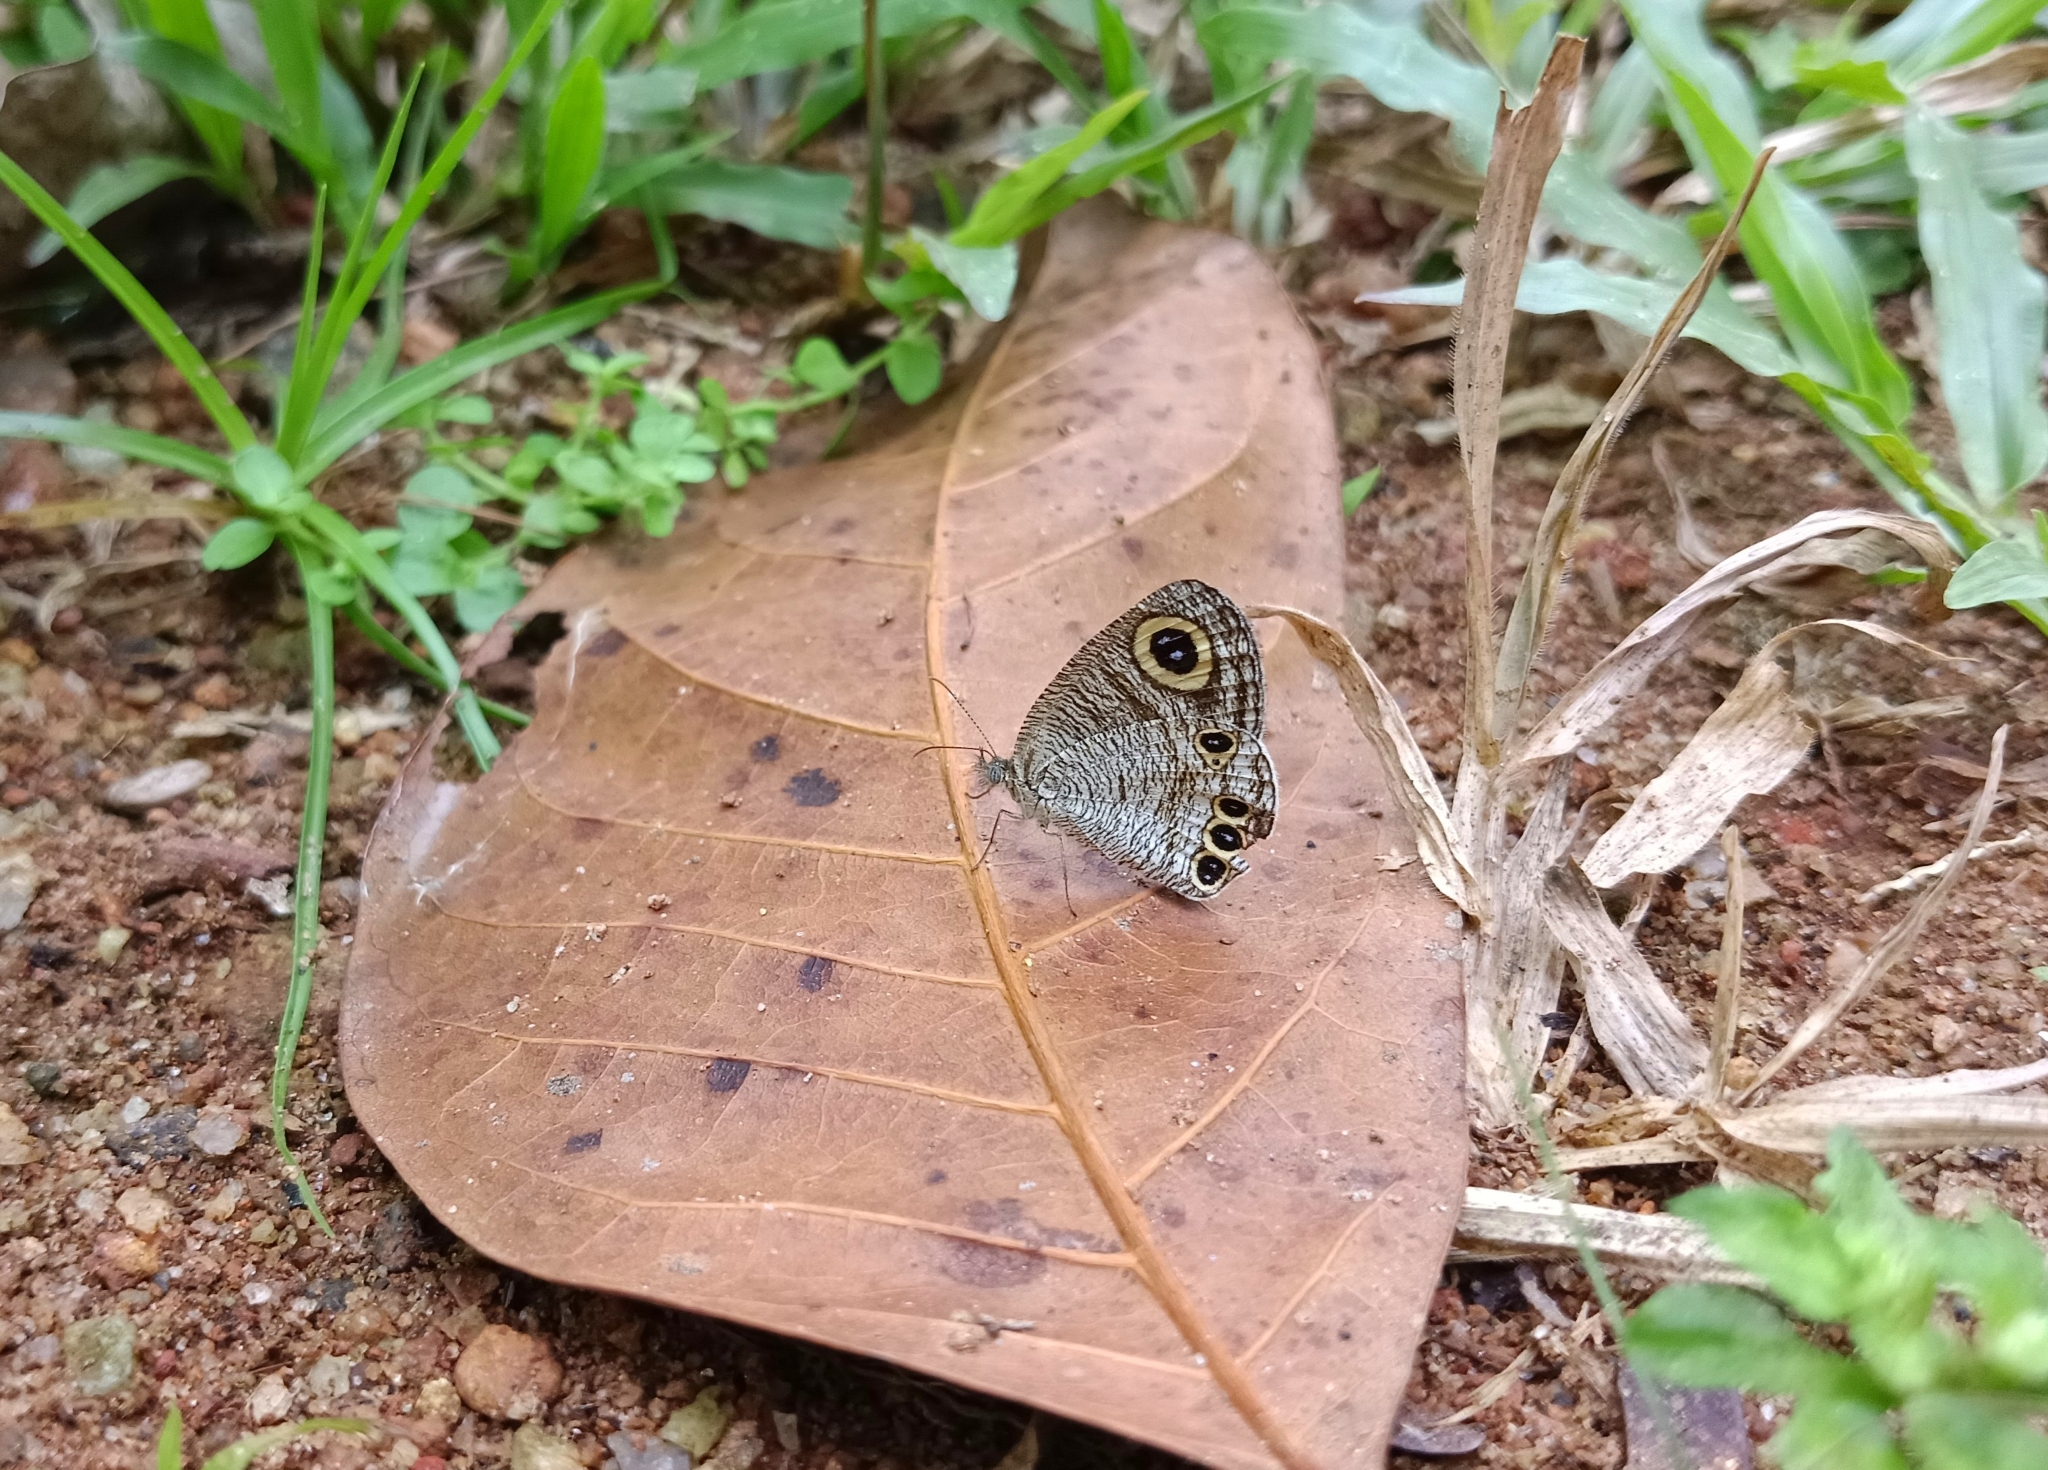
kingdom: Animalia
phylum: Arthropoda
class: Insecta
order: Lepidoptera
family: Nymphalidae
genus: Ypthima
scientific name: Ypthima huebneri
